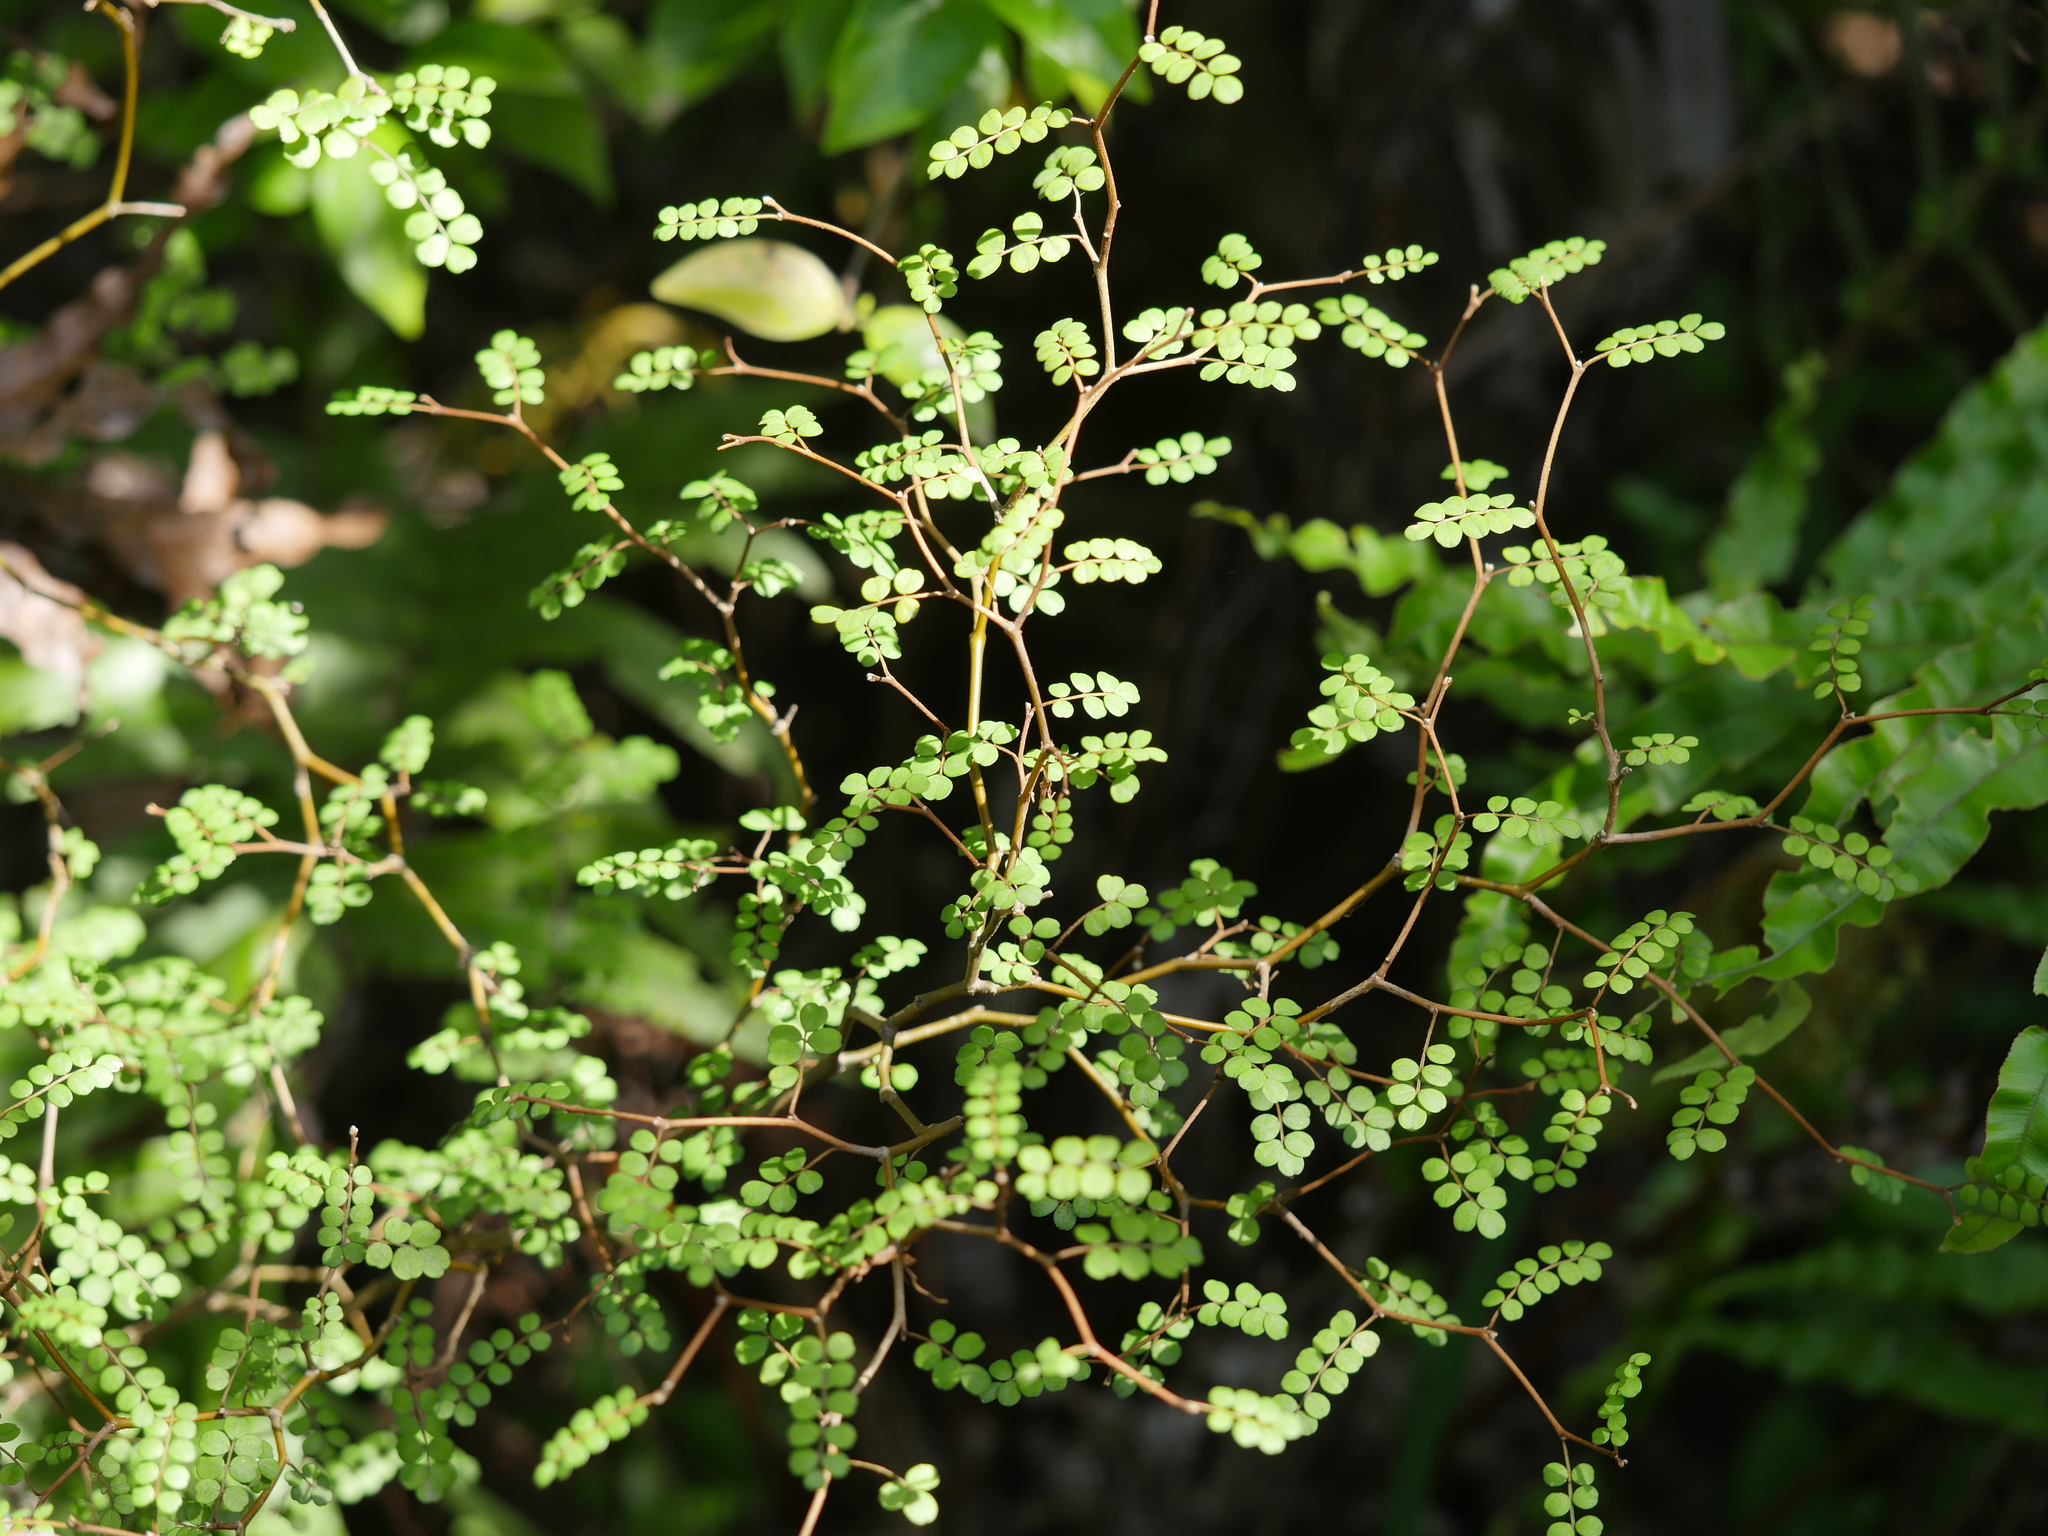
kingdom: Plantae
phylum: Tracheophyta
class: Magnoliopsida
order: Fabales
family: Fabaceae
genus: Sophora
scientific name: Sophora microphylla
